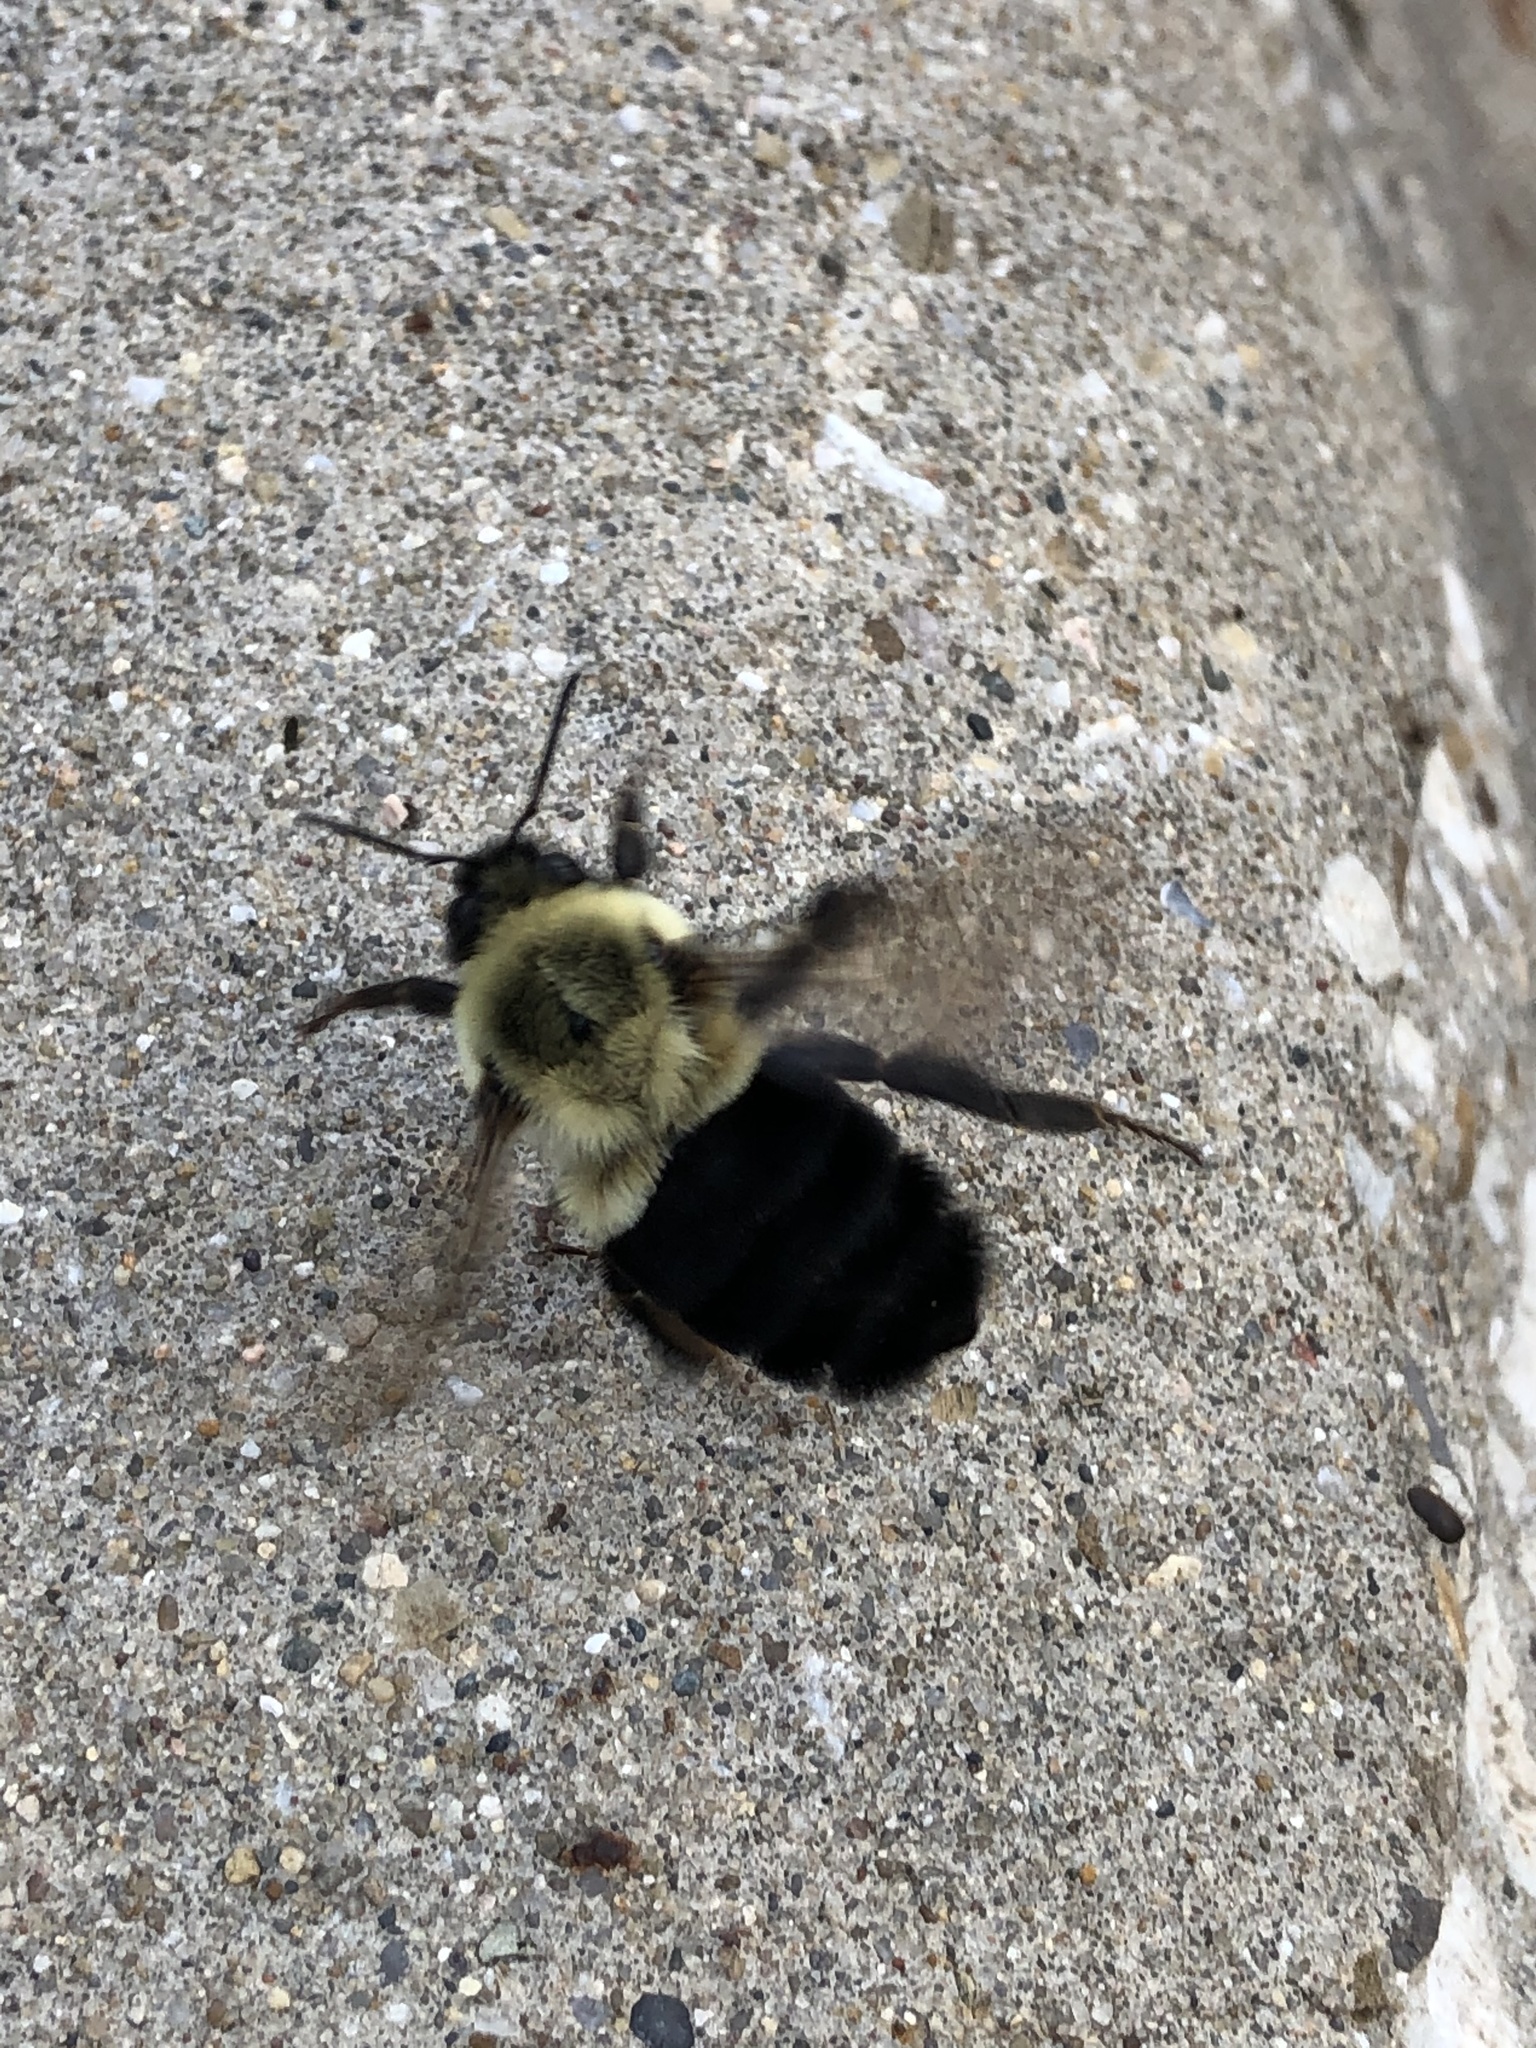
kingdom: Animalia
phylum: Arthropoda
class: Insecta
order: Hymenoptera
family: Apidae
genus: Bombus
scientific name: Bombus impatiens
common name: Common eastern bumble bee
